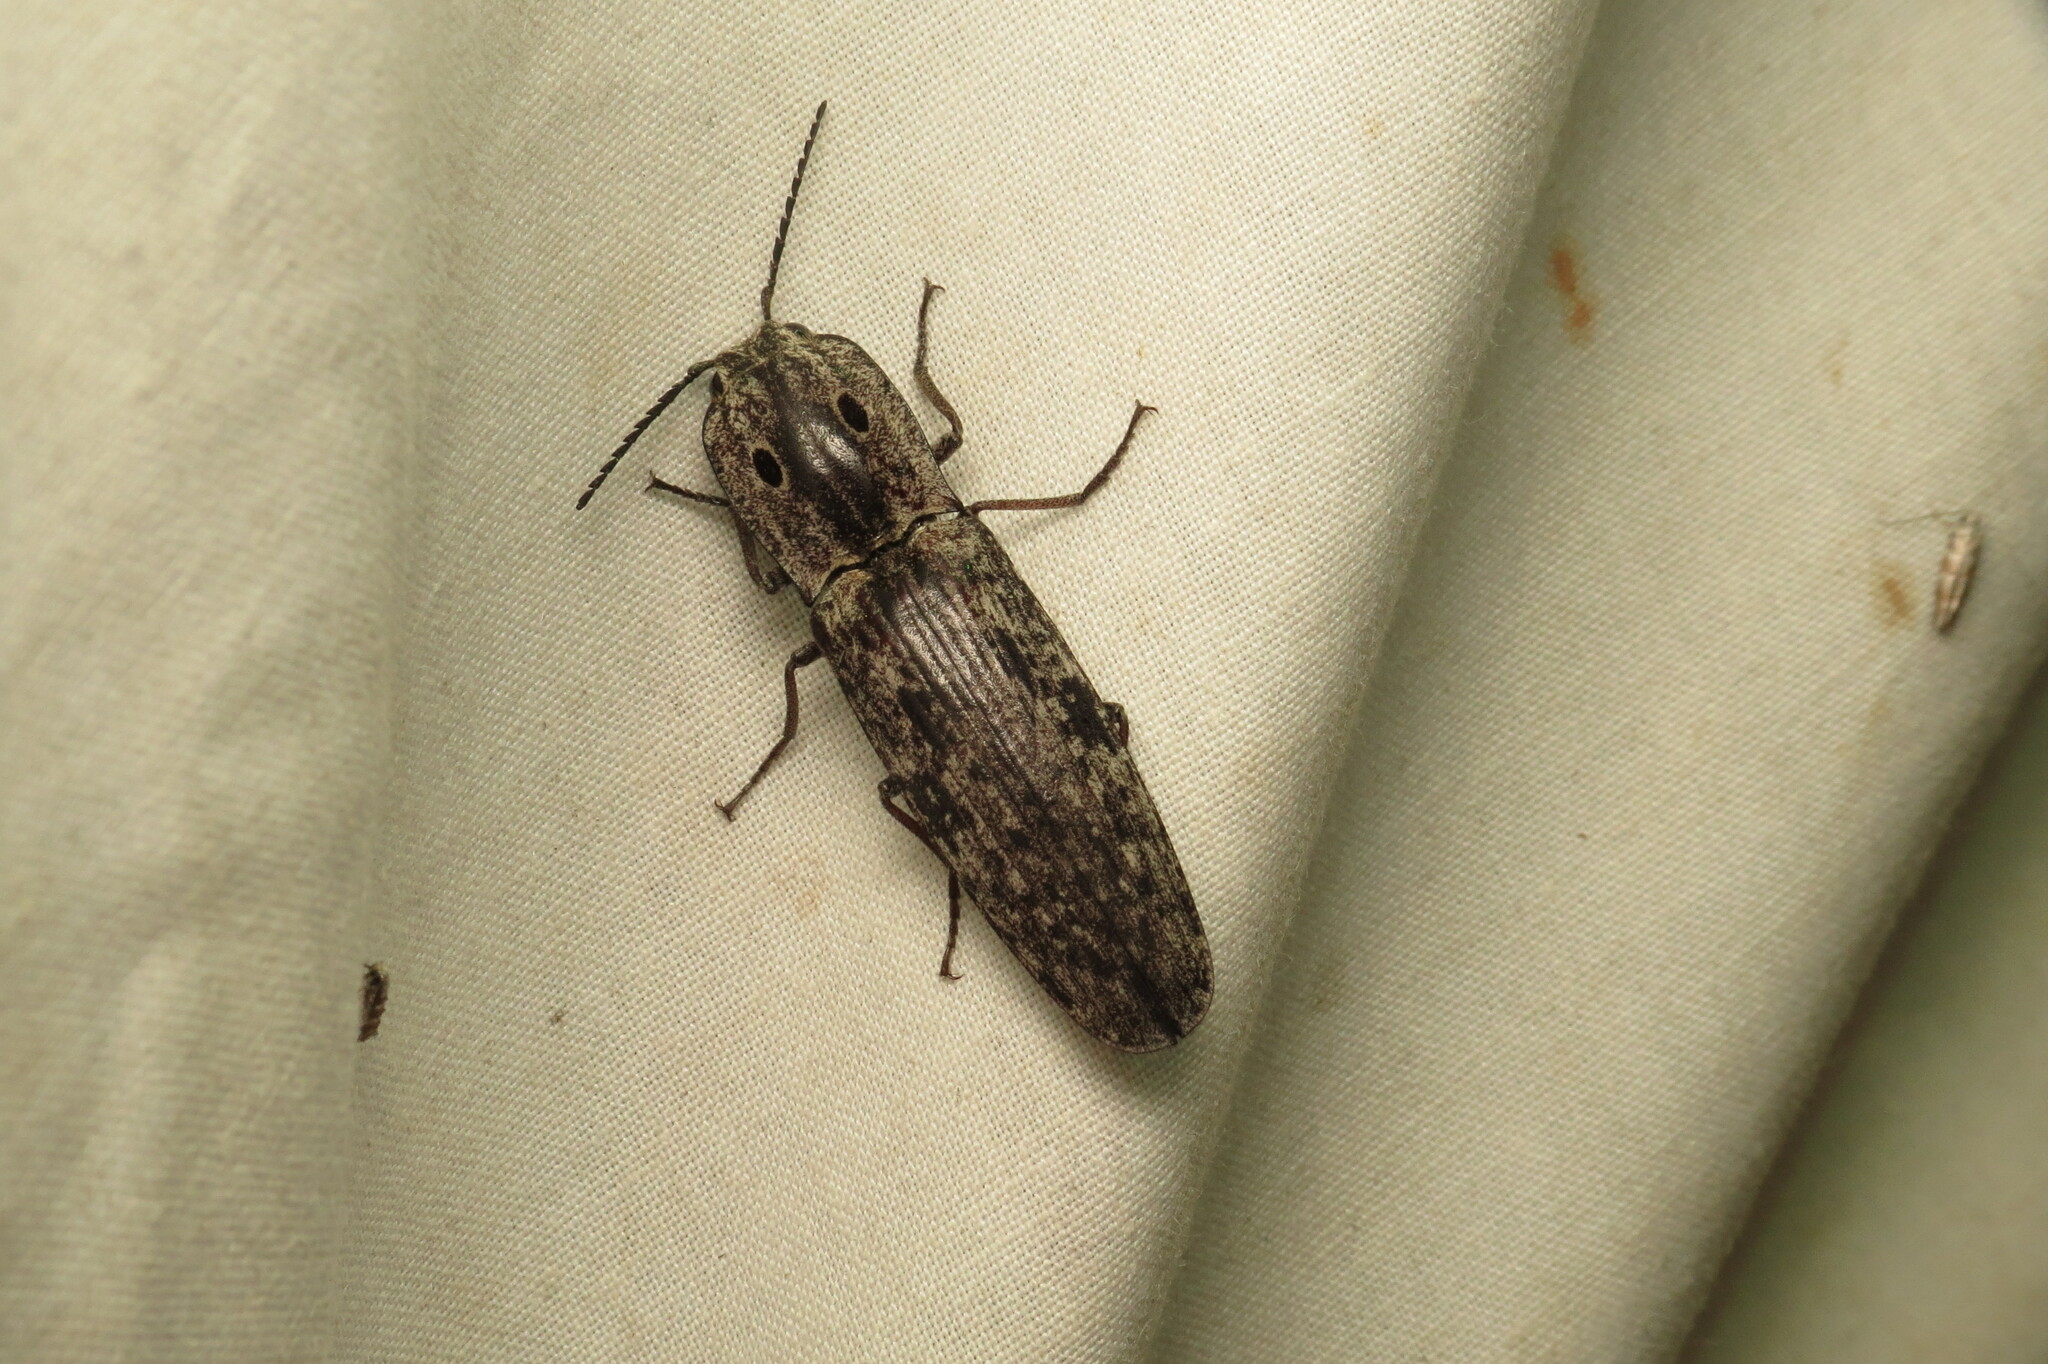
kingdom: Animalia
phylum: Arthropoda
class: Insecta
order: Coleoptera
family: Elateridae
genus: Alaus
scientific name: Alaus myops
